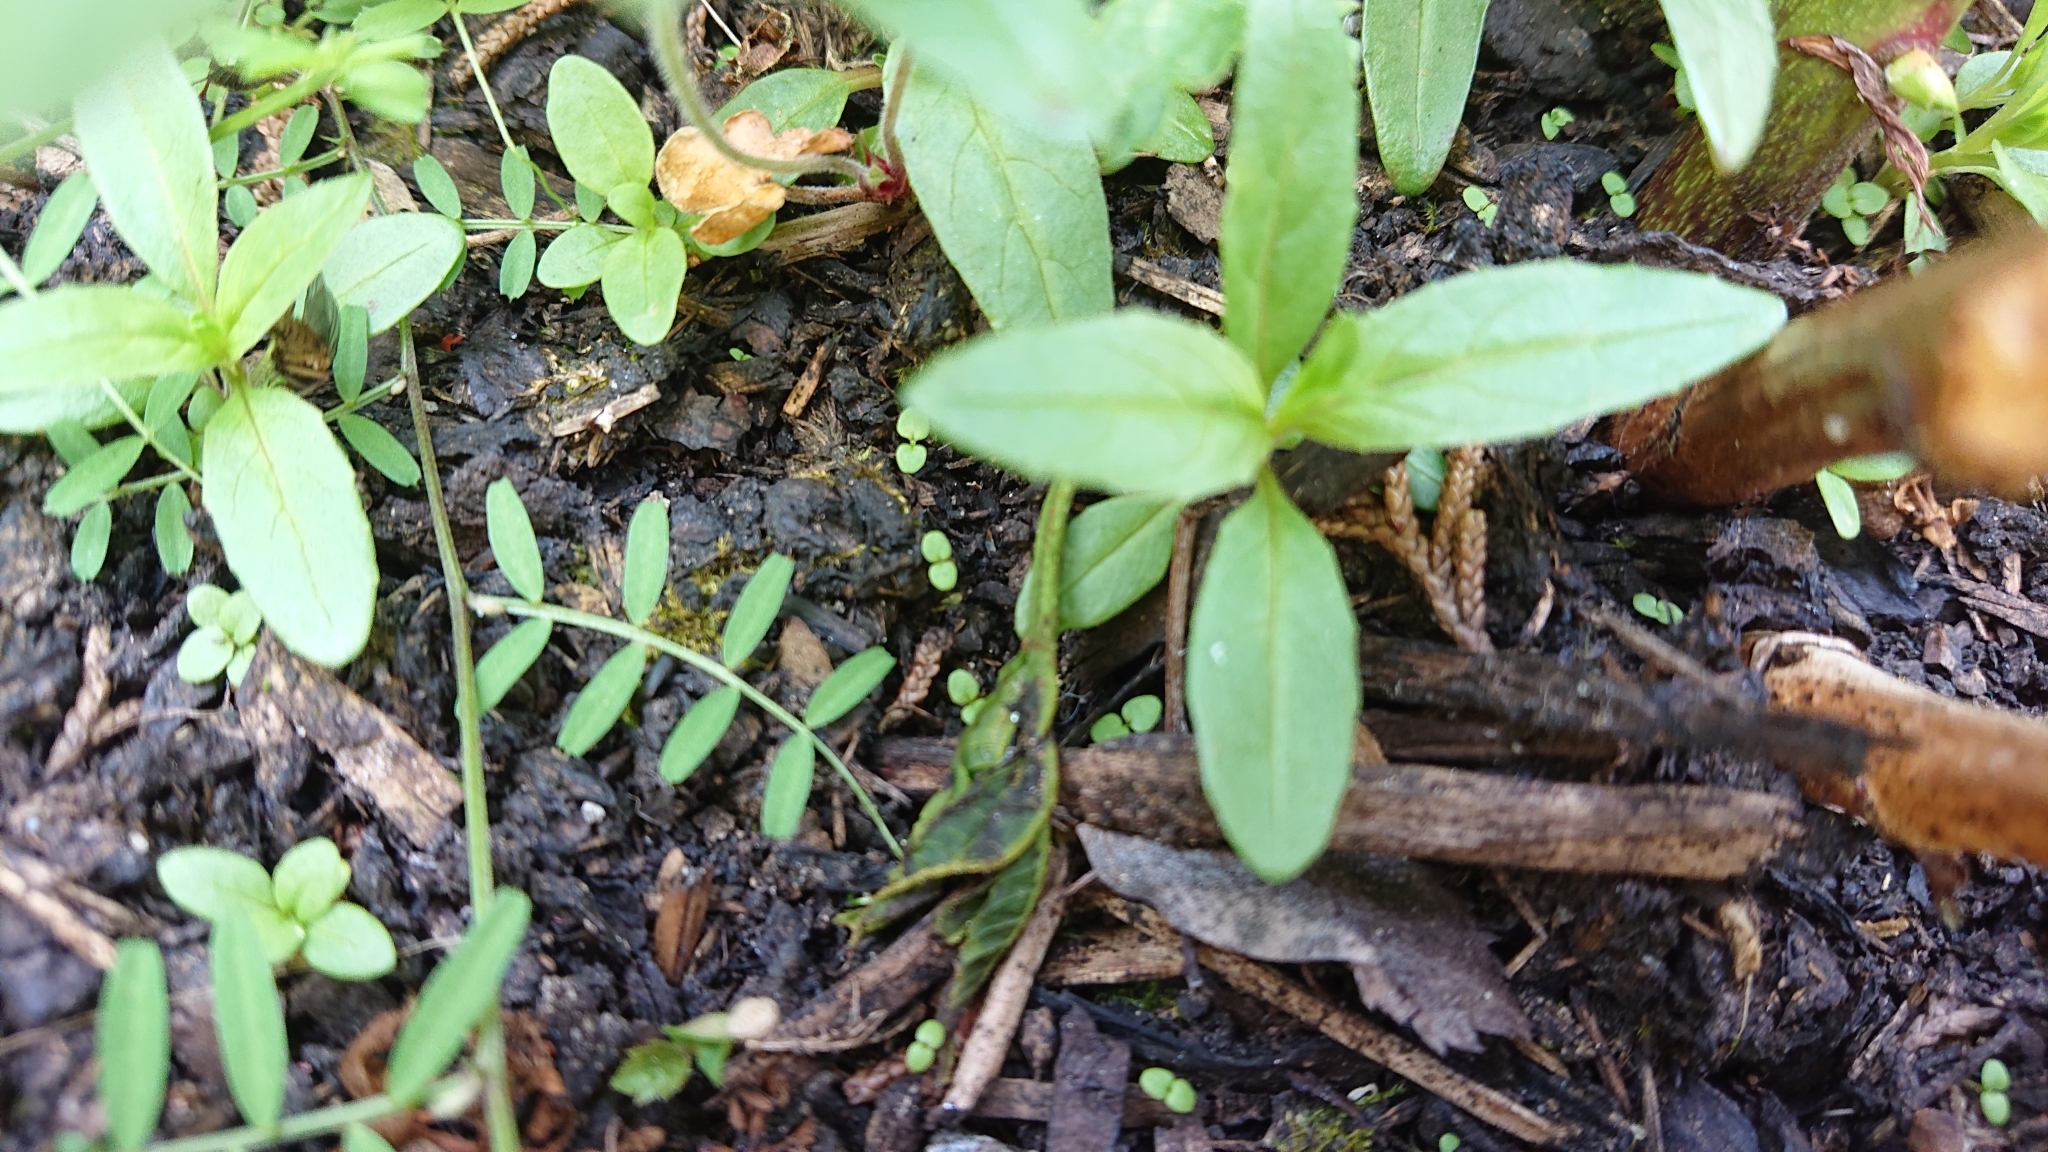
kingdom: Plantae
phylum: Tracheophyta
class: Magnoliopsida
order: Fabales
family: Fabaceae
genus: Vicia
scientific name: Vicia hirsuta
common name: Tiny vetch
